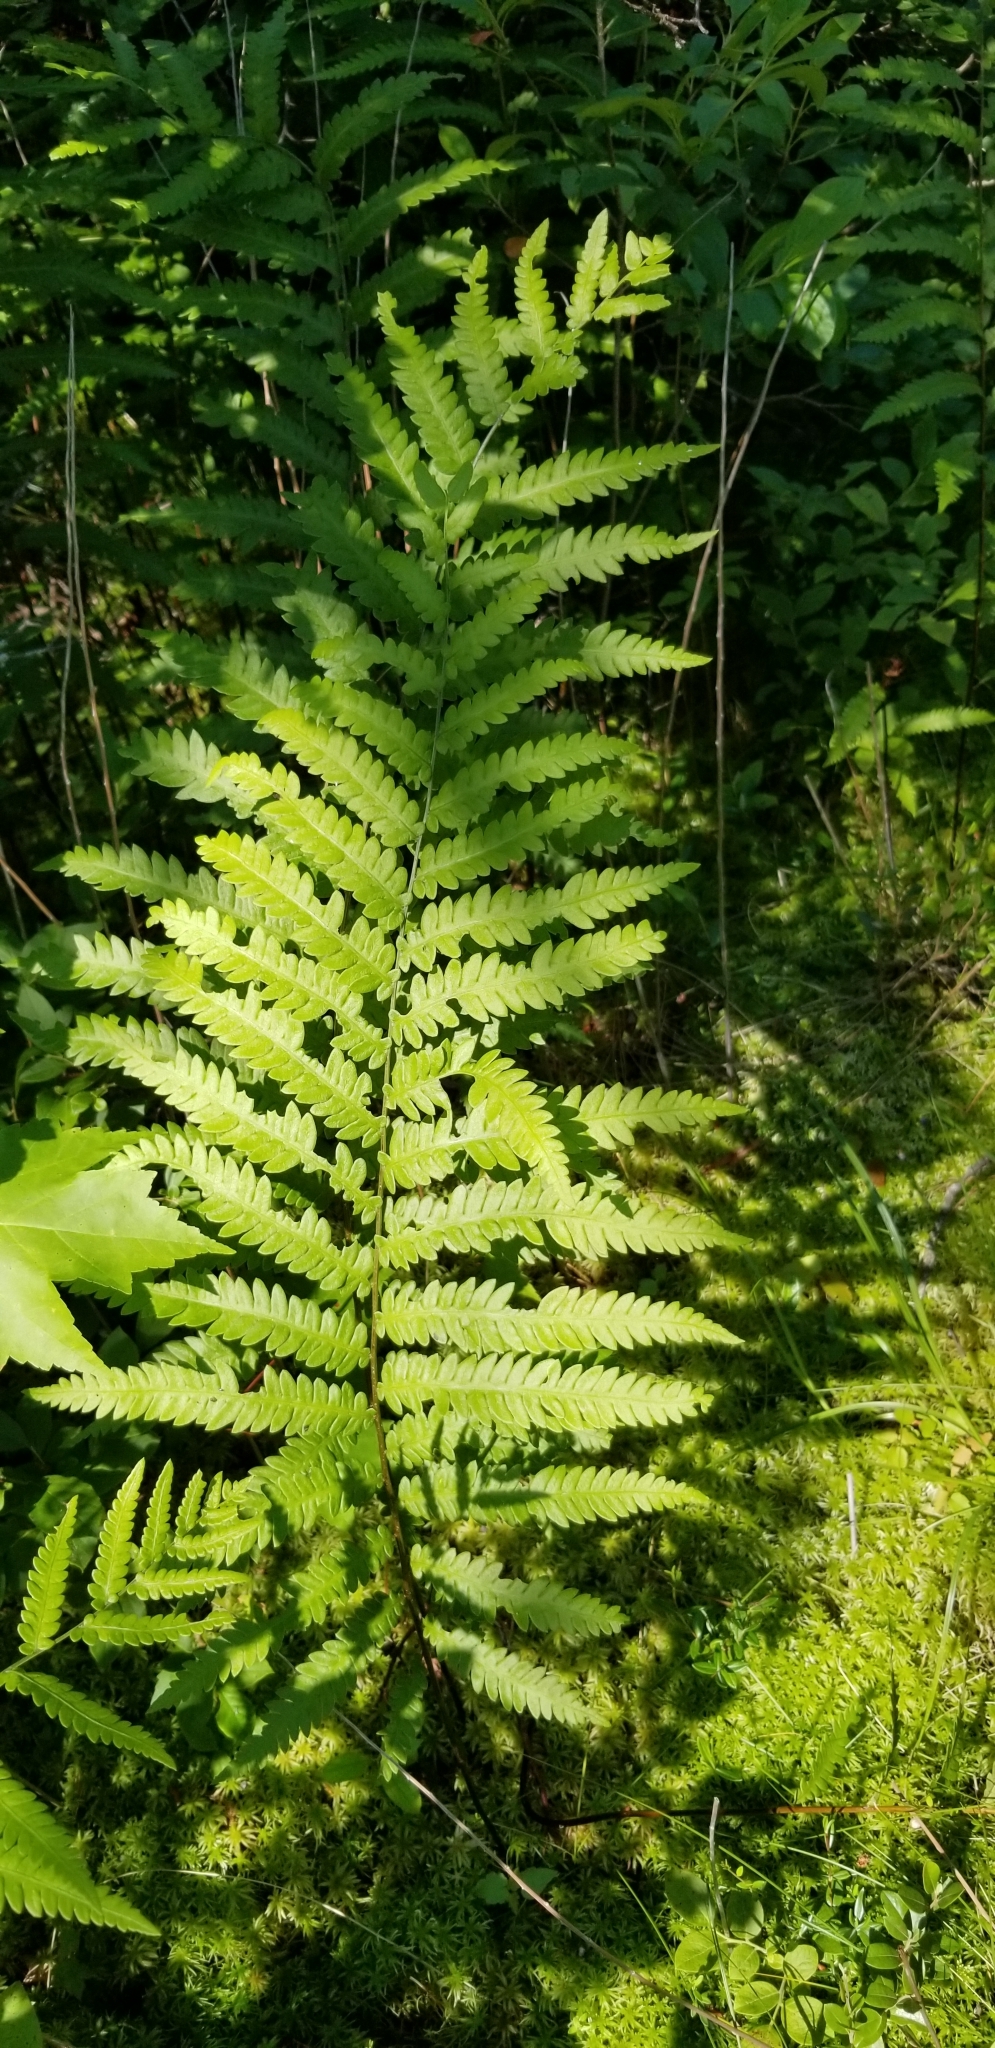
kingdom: Plantae
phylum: Tracheophyta
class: Polypodiopsida
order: Polypodiales
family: Blechnaceae
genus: Anchistea
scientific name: Anchistea virginica
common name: Virginia chain fern
